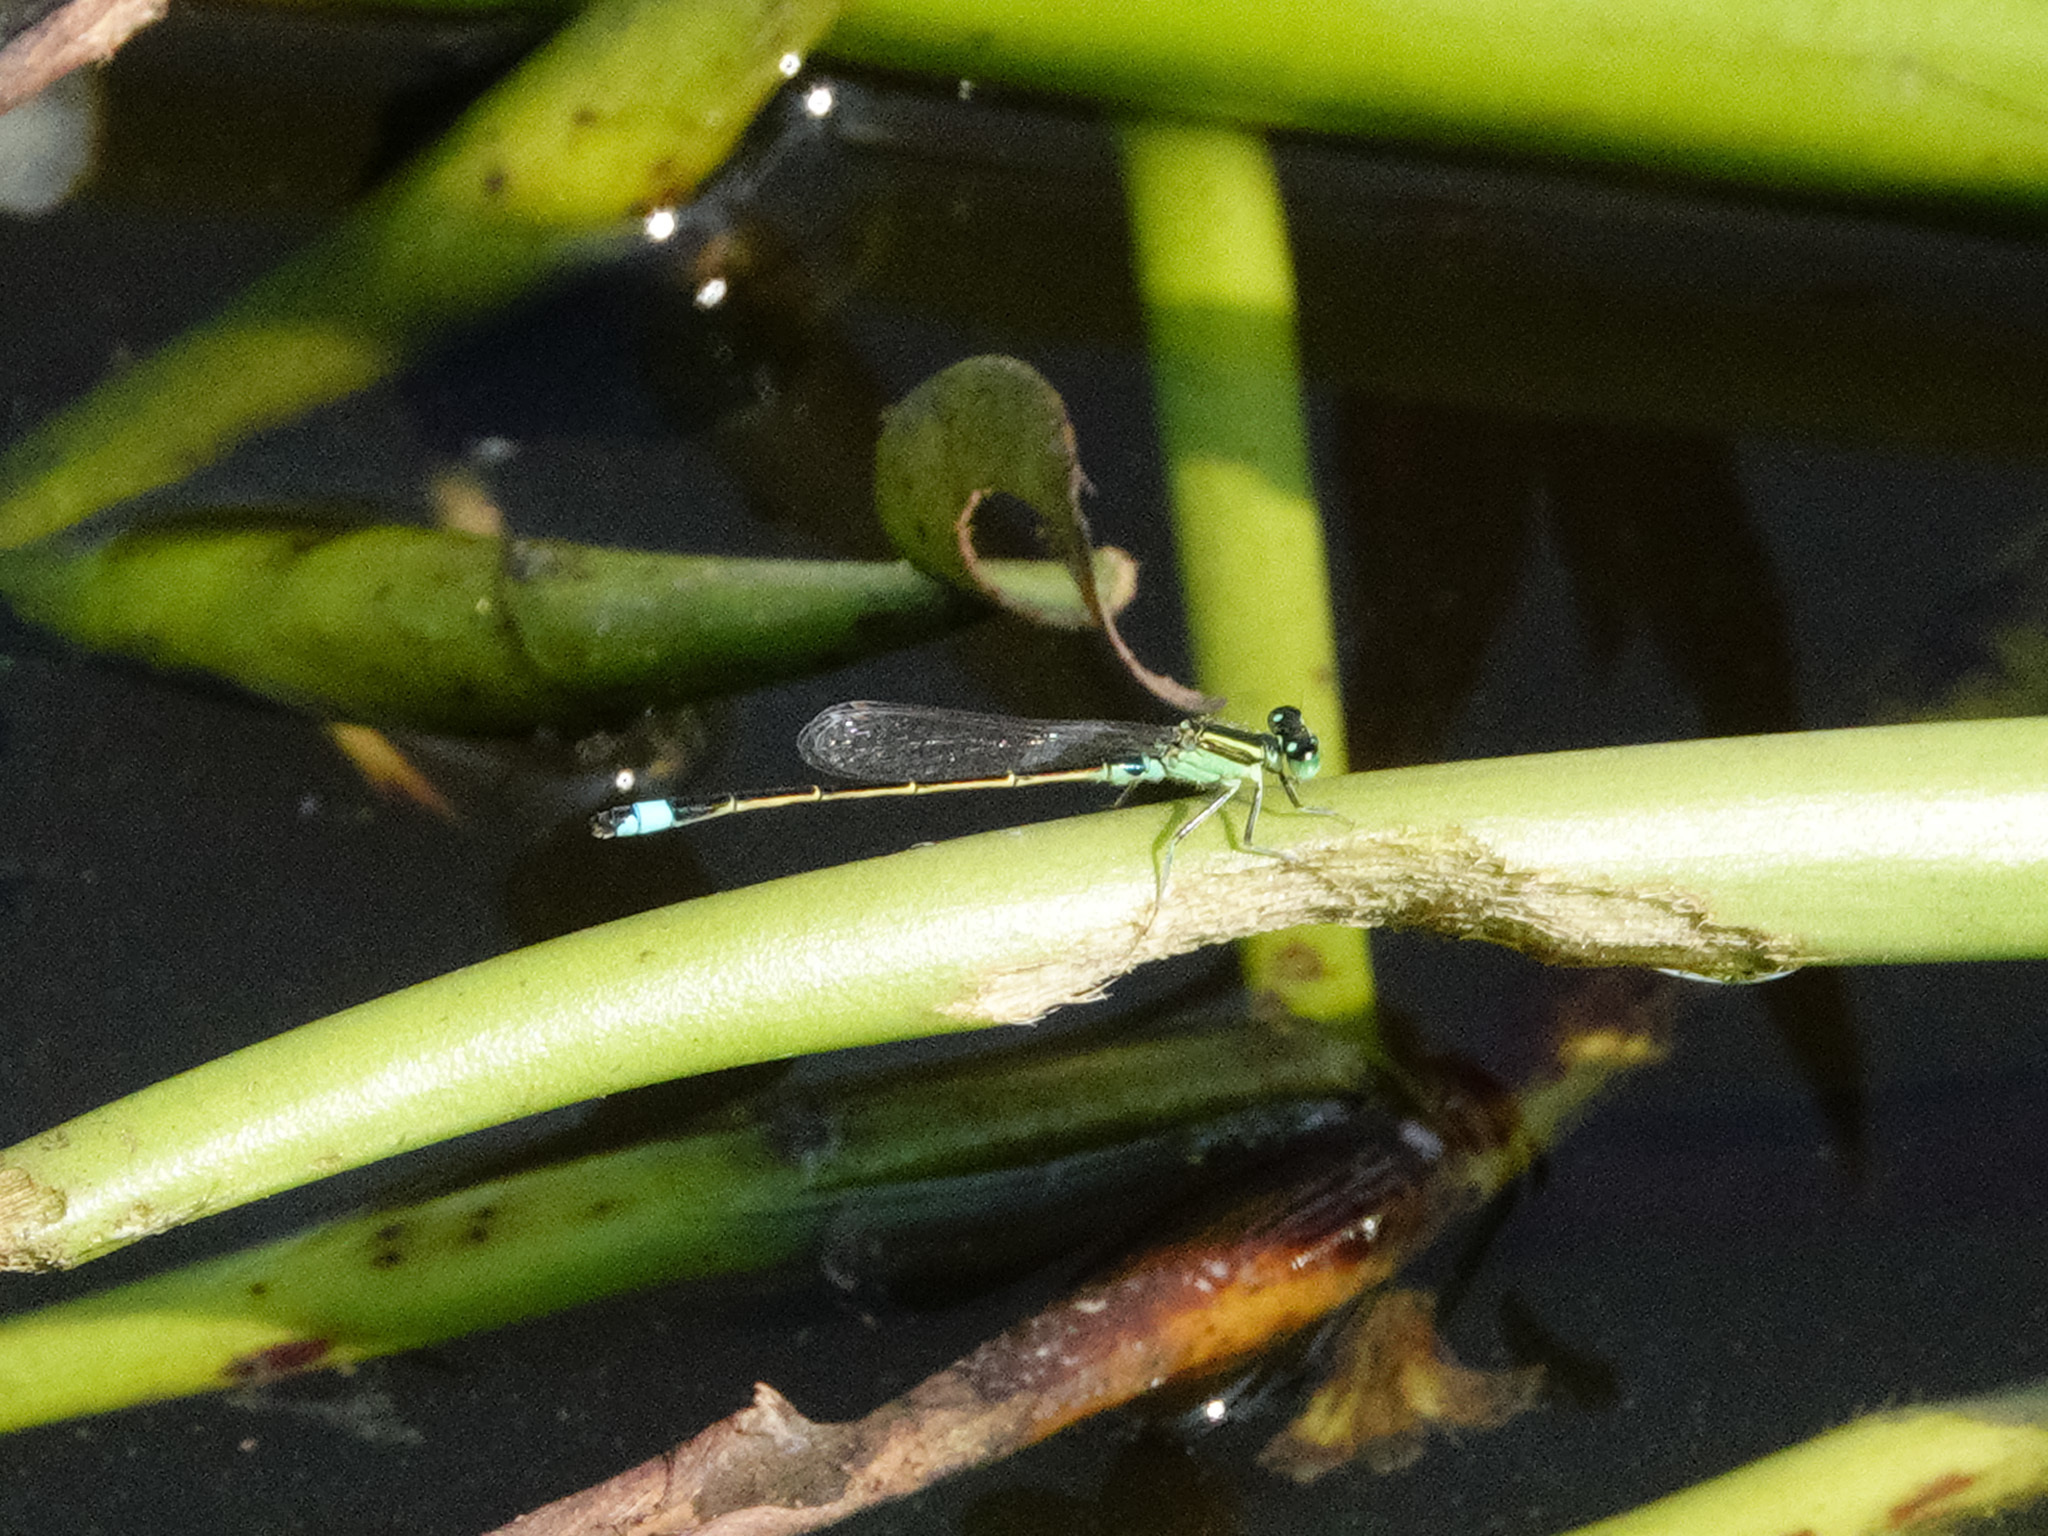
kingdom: Animalia
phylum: Arthropoda
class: Insecta
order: Odonata
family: Coenagrionidae
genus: Ischnura
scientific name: Ischnura senegalensis
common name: Tropical bluetail
